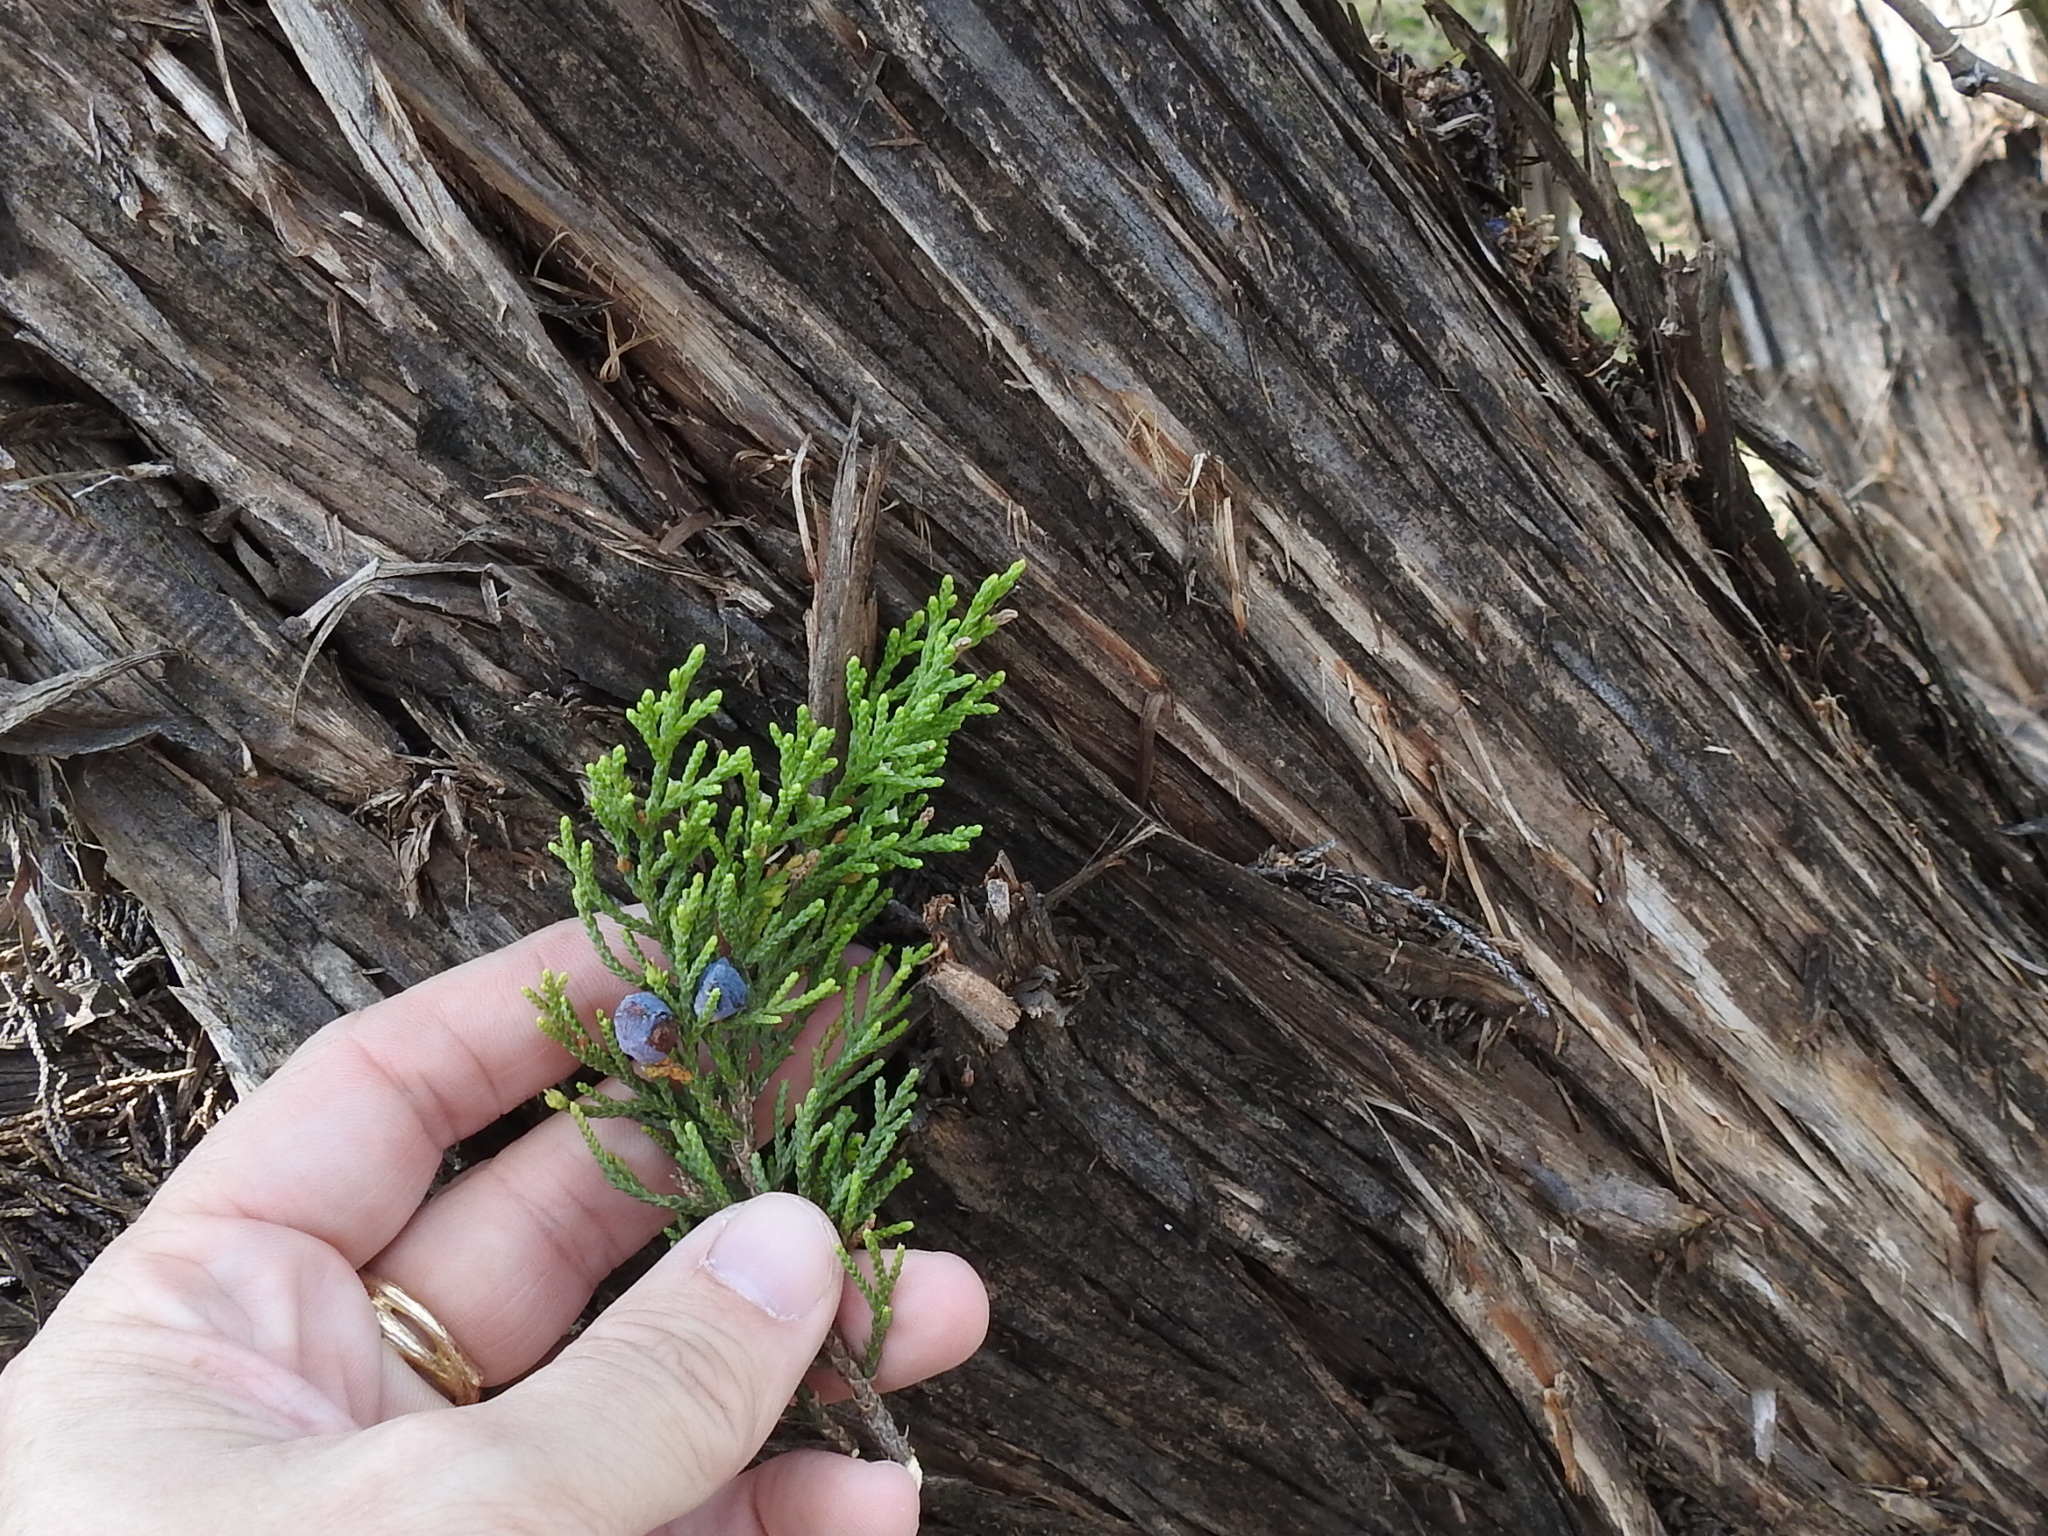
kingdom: Plantae
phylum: Tracheophyta
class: Pinopsida
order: Pinales
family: Cupressaceae
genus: Juniperus
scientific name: Juniperus ashei
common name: Mexican juniper
